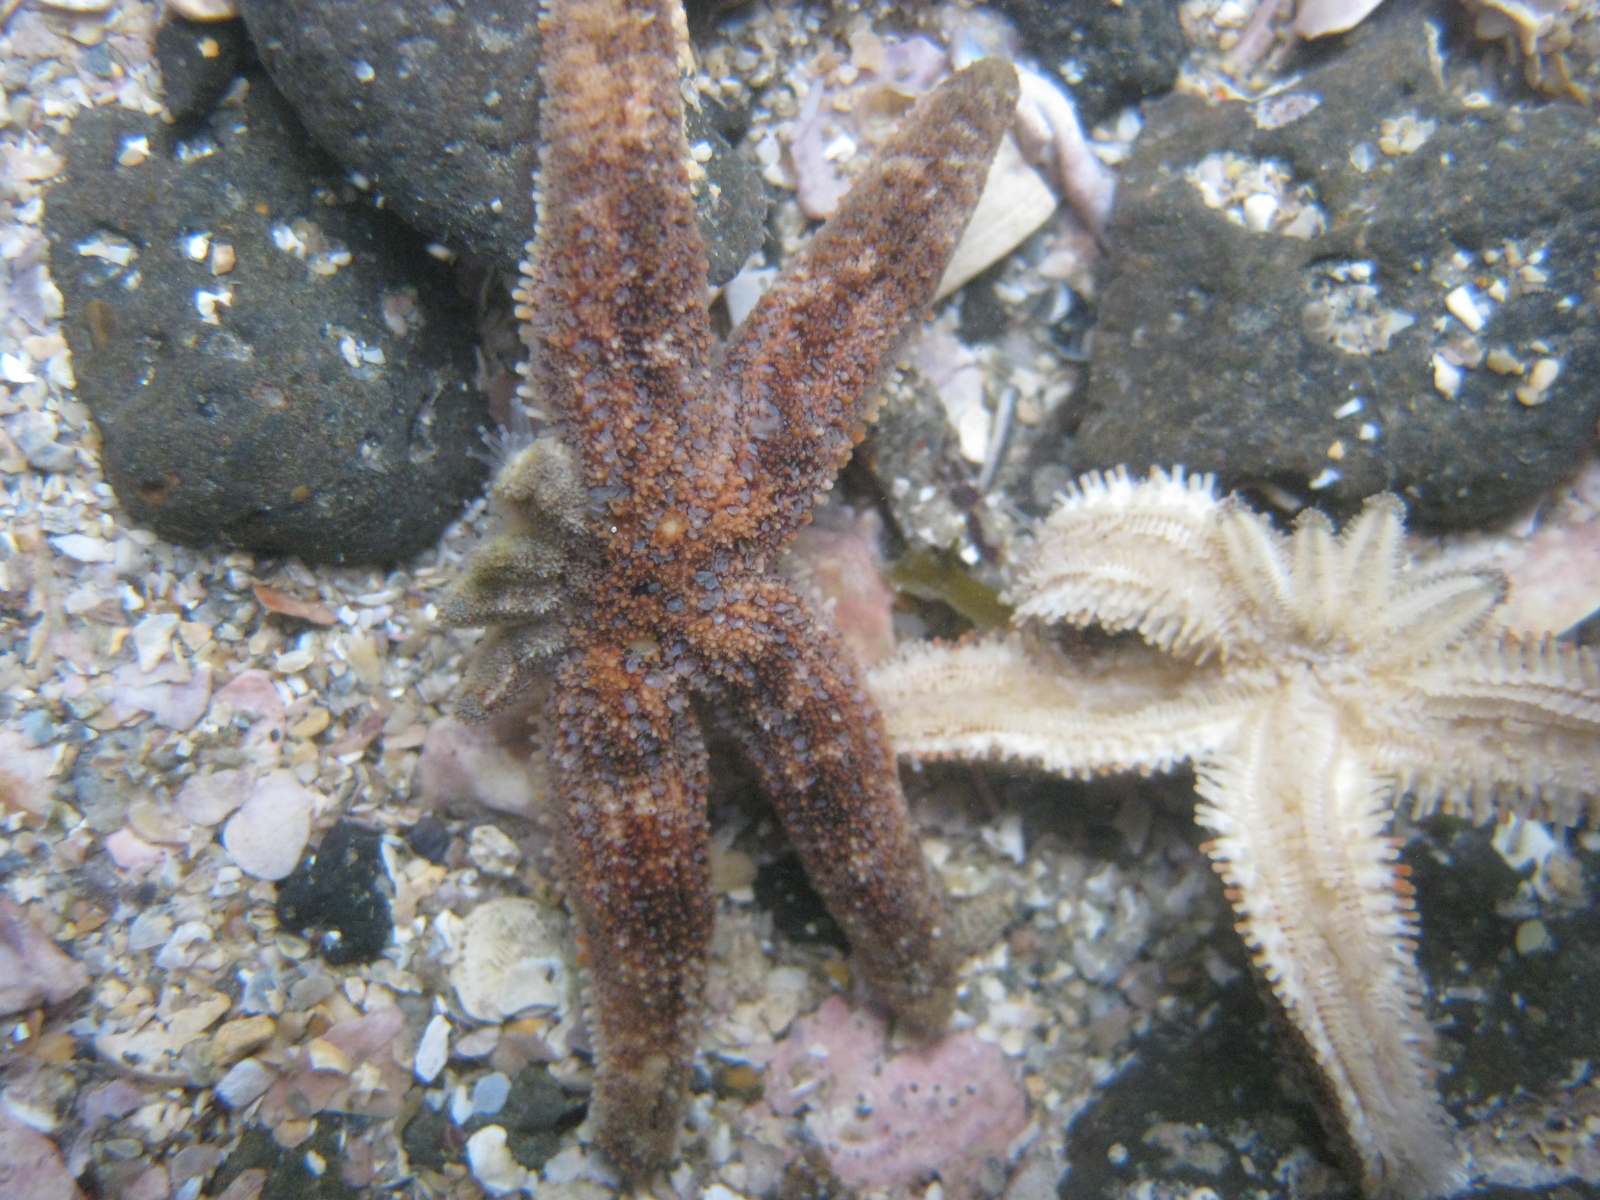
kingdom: Animalia
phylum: Echinodermata
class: Asteroidea
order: Forcipulatida
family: Stichasteridae
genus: Allostichaster
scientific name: Allostichaster polyplax
